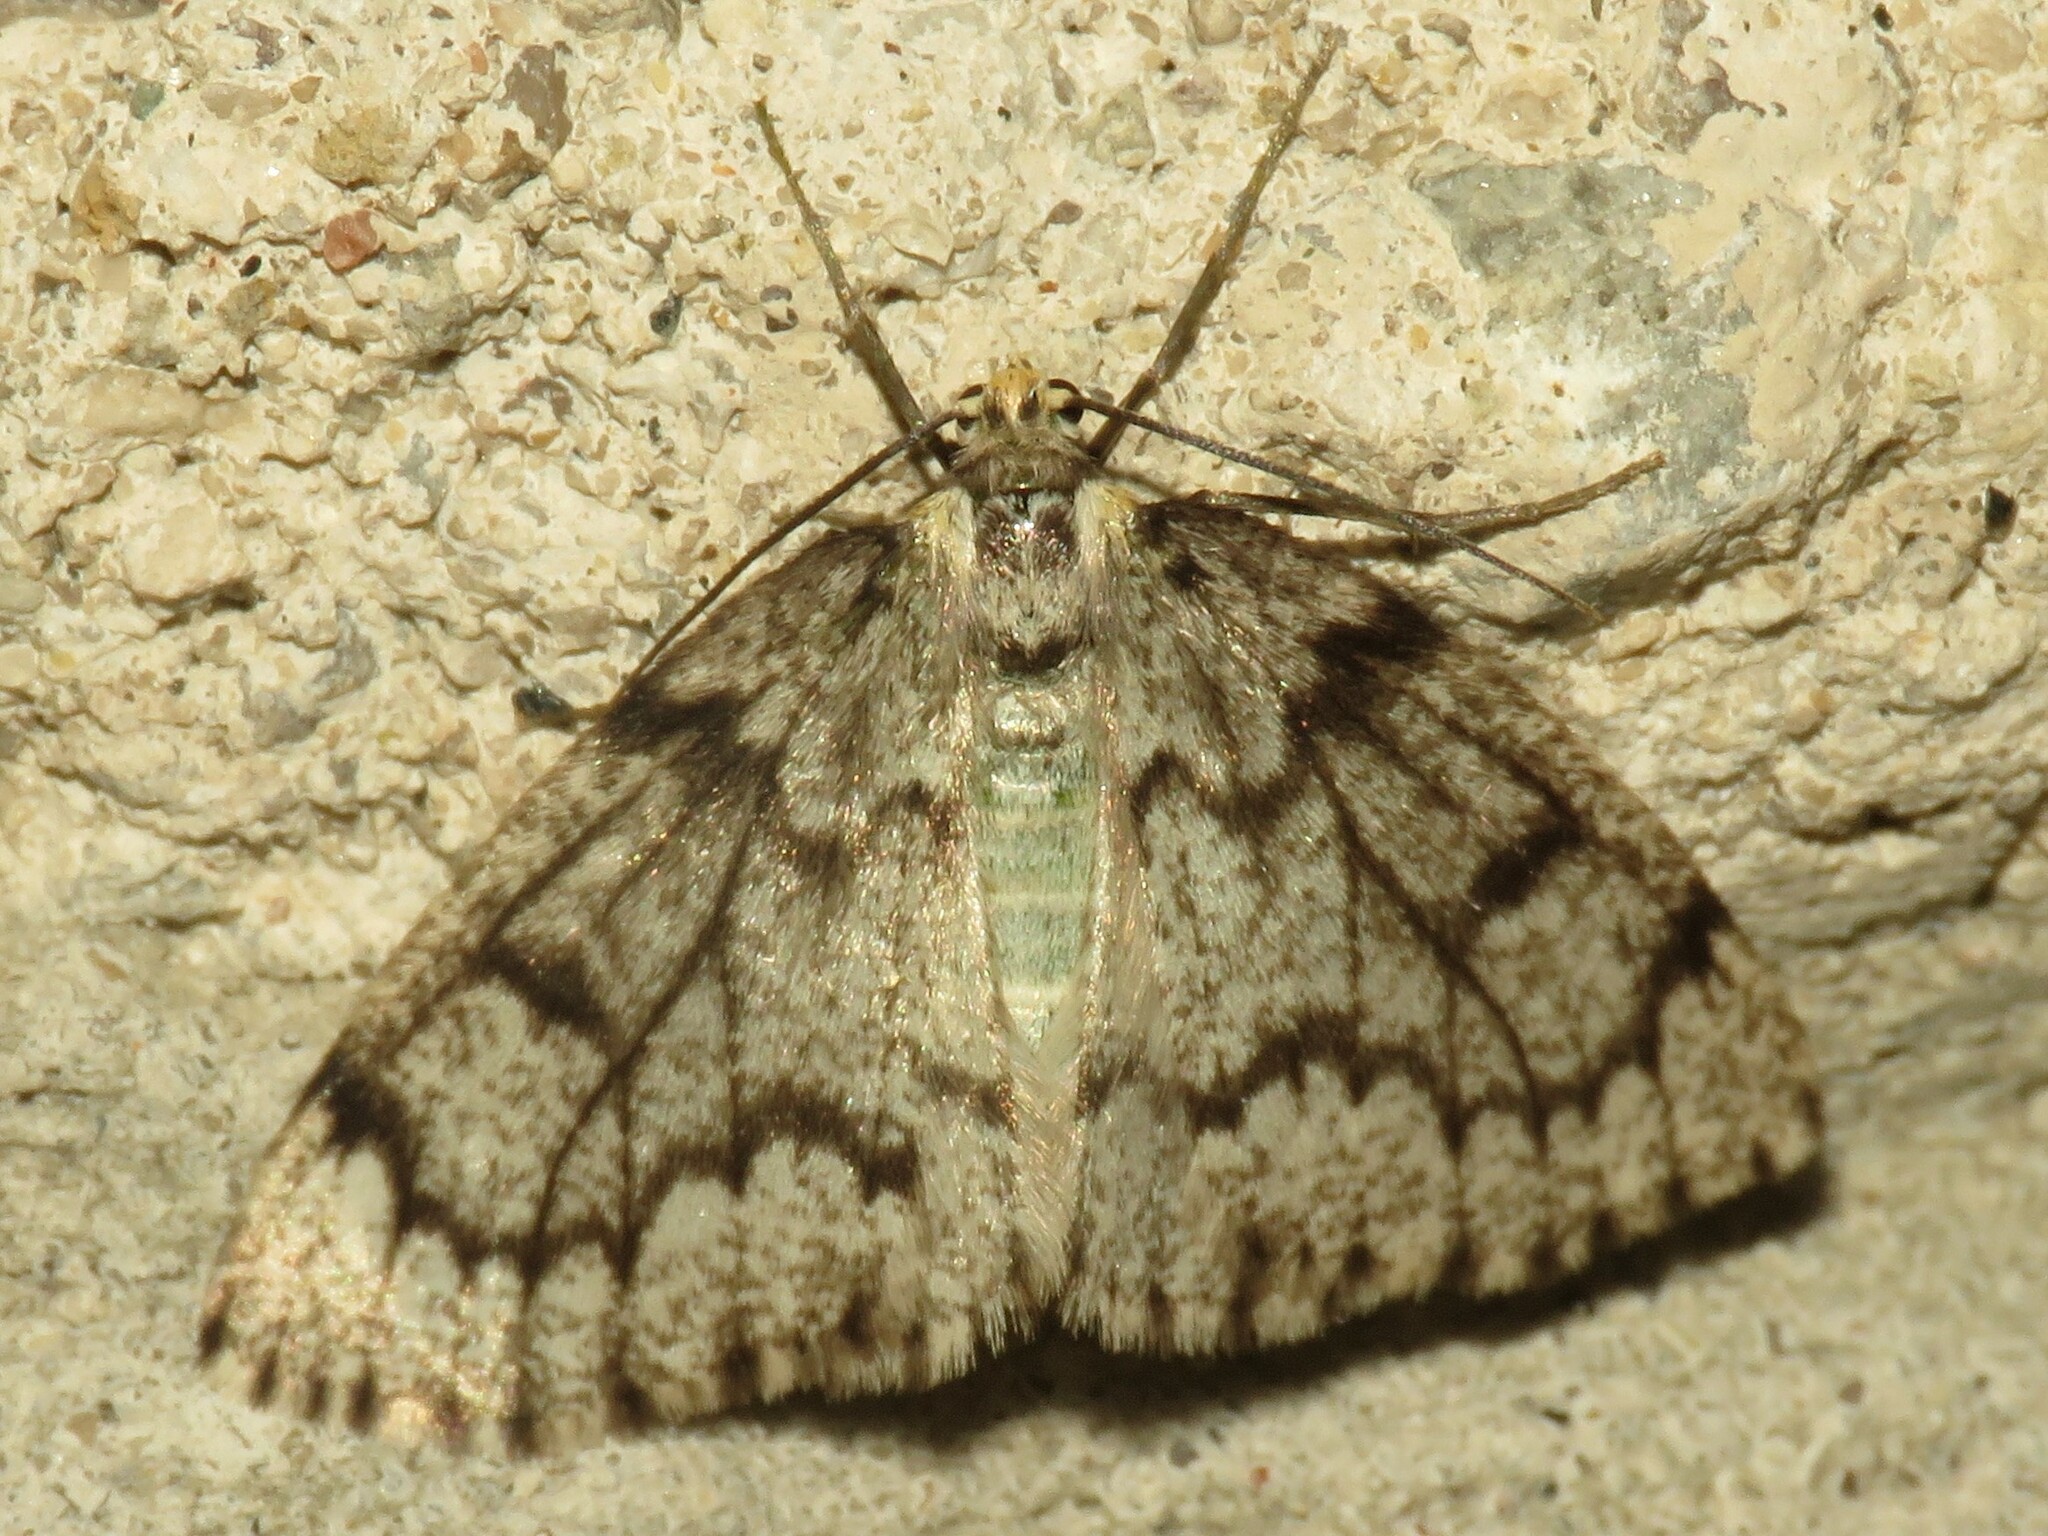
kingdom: Animalia
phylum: Arthropoda
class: Insecta
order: Lepidoptera
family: Geometridae
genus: Nepytia
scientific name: Nepytia canosaria
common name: False hemlock looper
